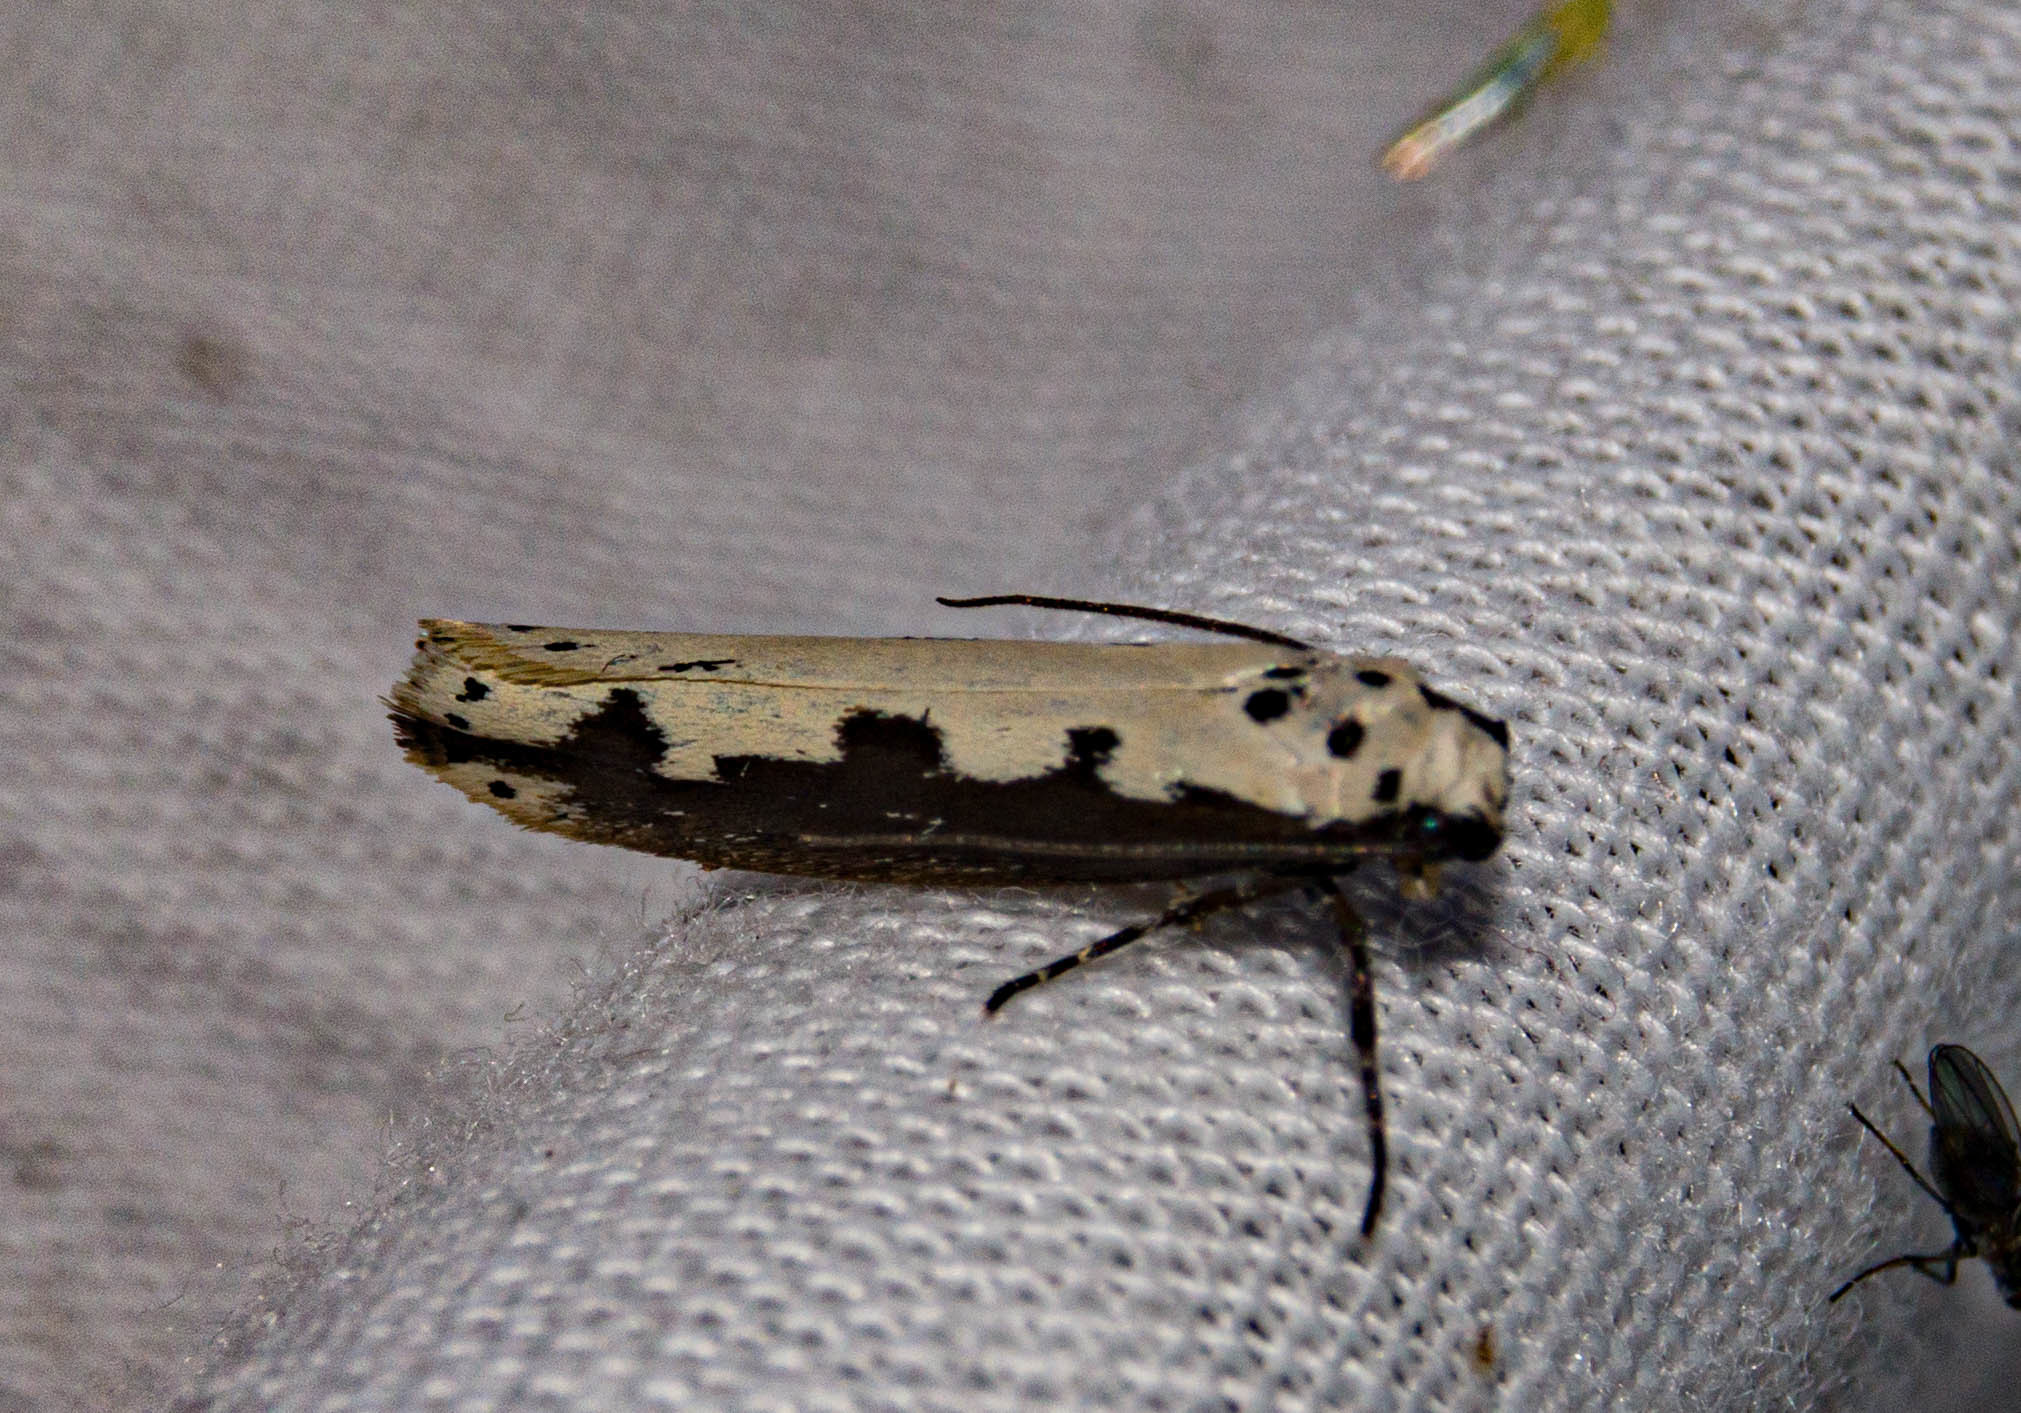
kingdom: Animalia
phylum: Arthropoda
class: Insecta
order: Lepidoptera
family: Ethmiidae
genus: Ethmia
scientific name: Ethmia bipunctella
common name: Bordered ermel
